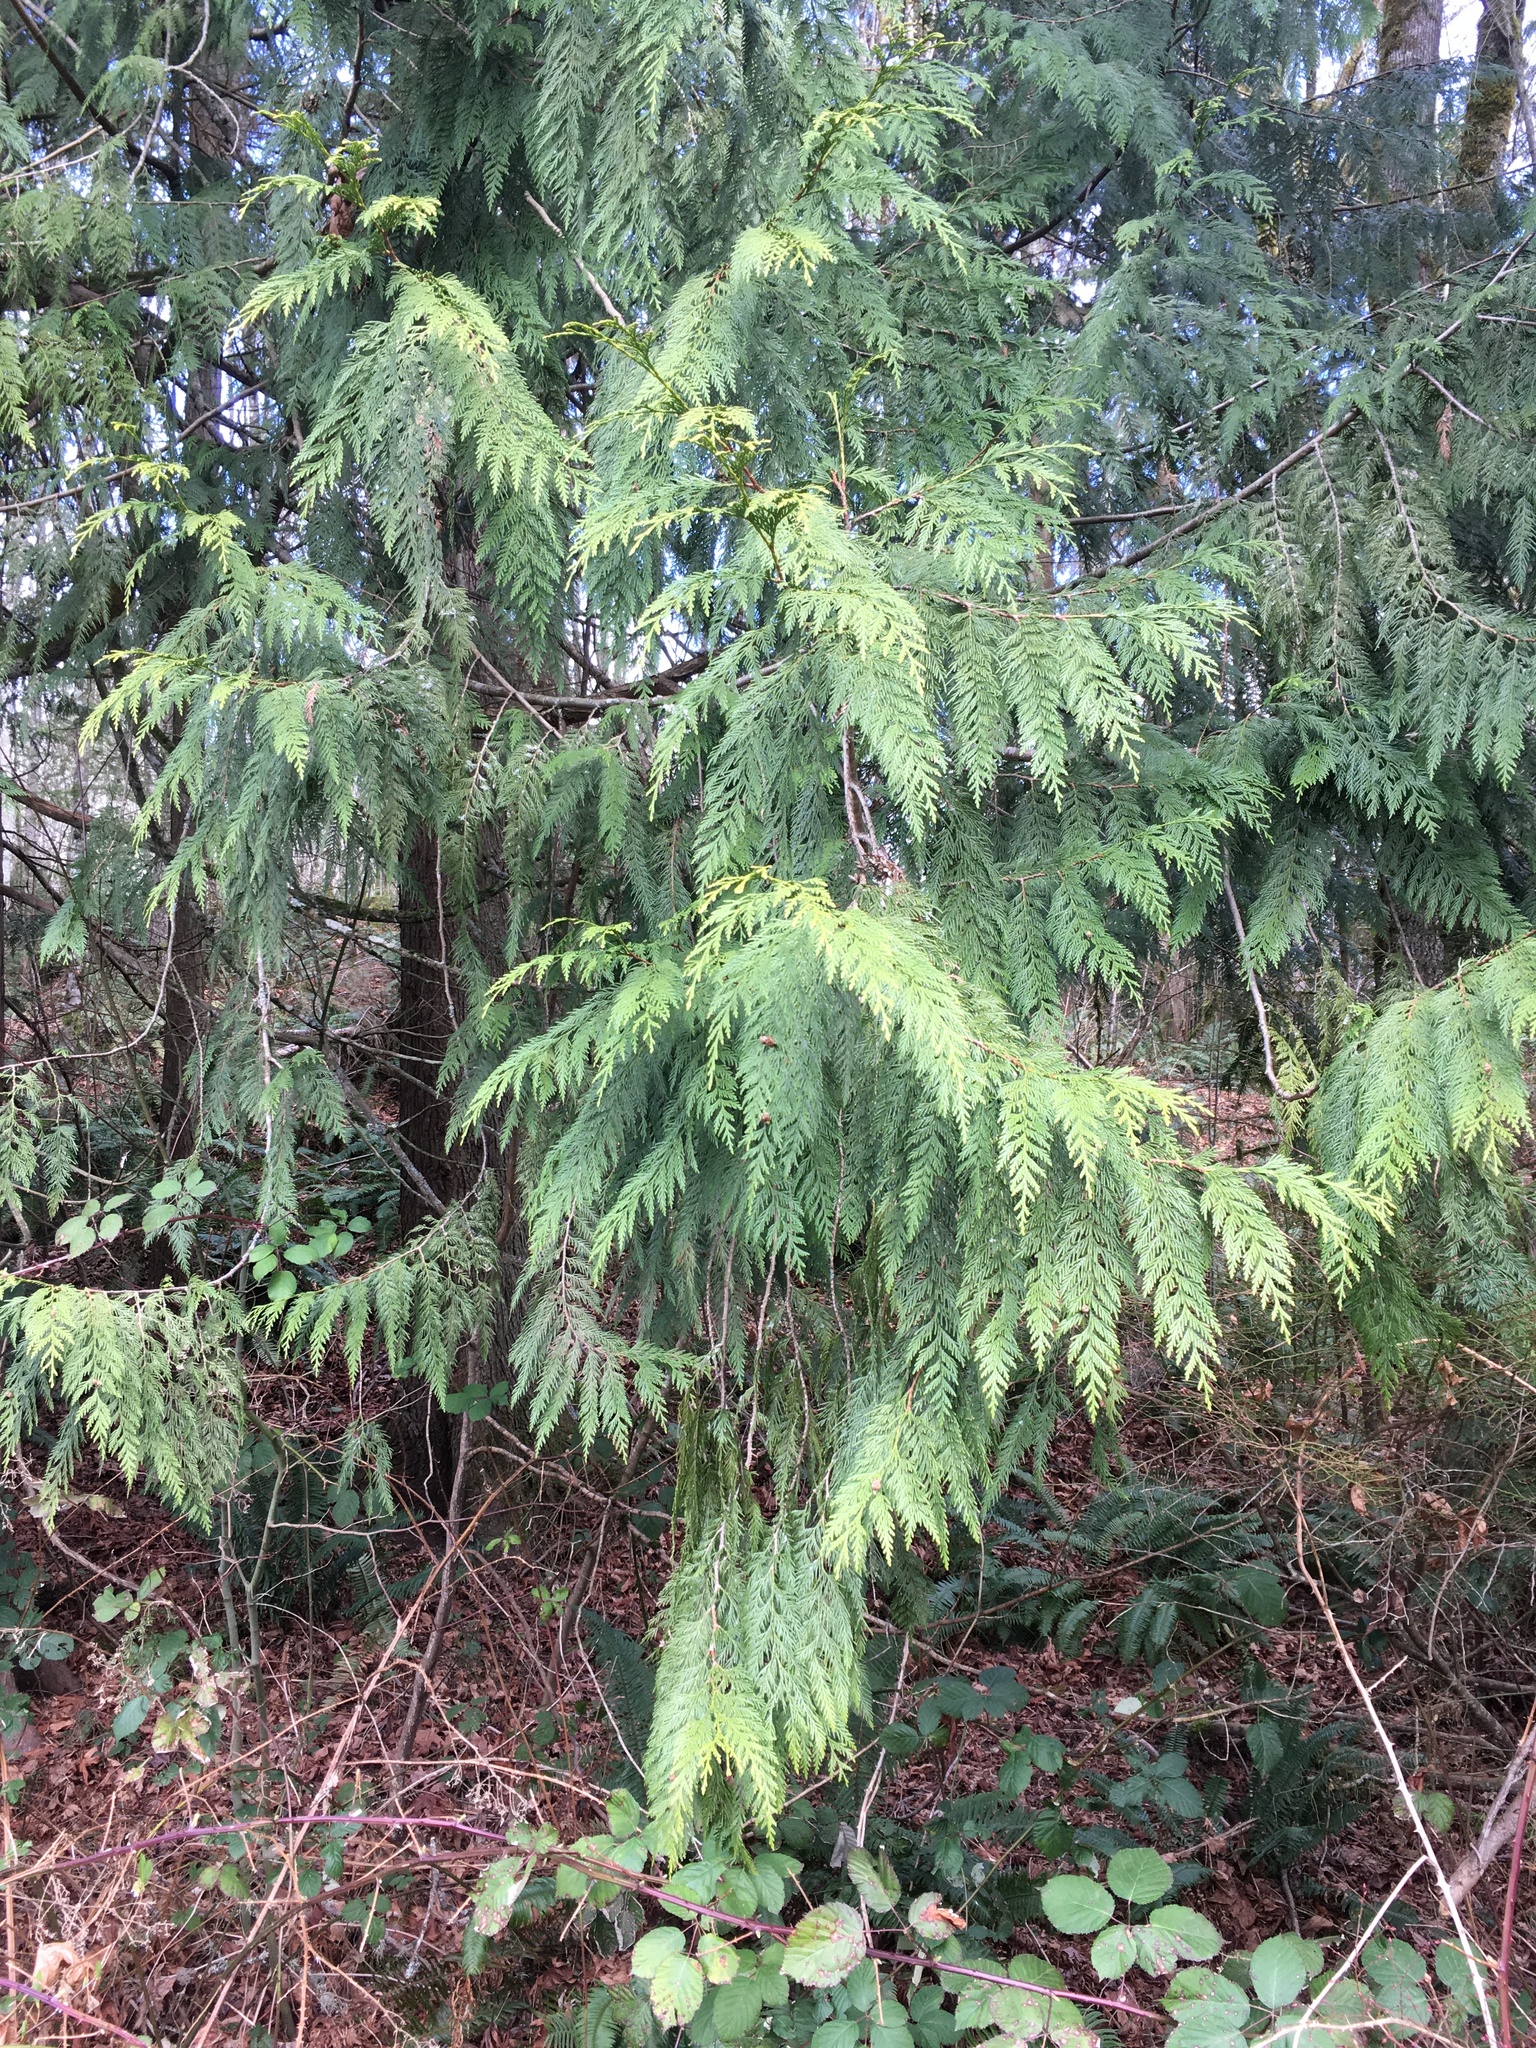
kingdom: Plantae
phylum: Tracheophyta
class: Pinopsida
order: Pinales
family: Cupressaceae
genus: Thuja
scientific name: Thuja plicata
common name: Western red-cedar
